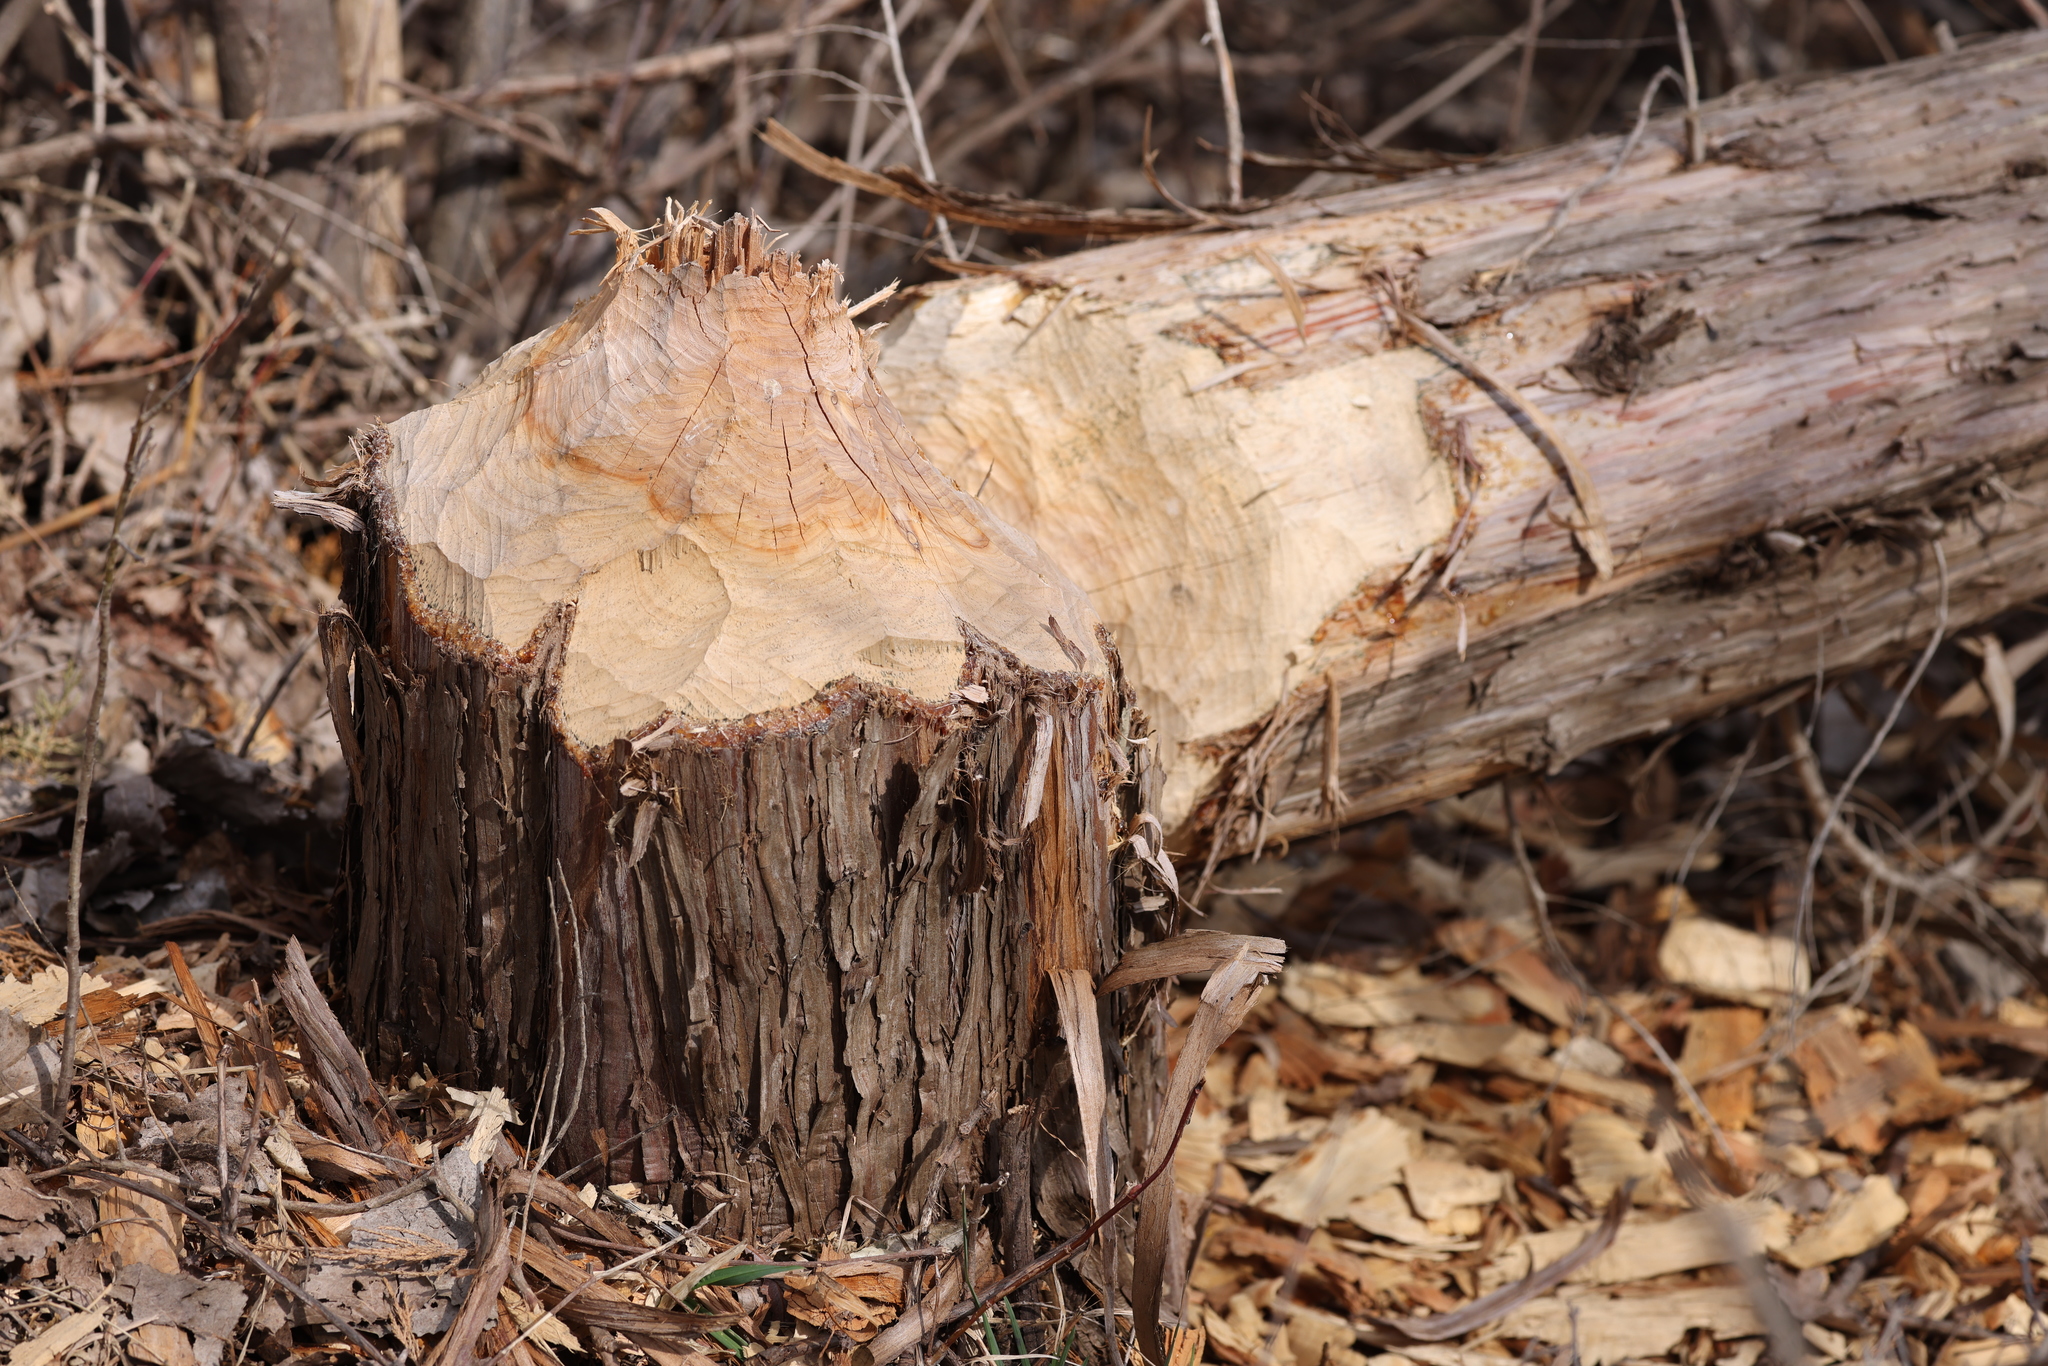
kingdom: Animalia
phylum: Chordata
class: Mammalia
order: Rodentia
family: Castoridae
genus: Castor
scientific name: Castor canadensis
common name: American beaver
